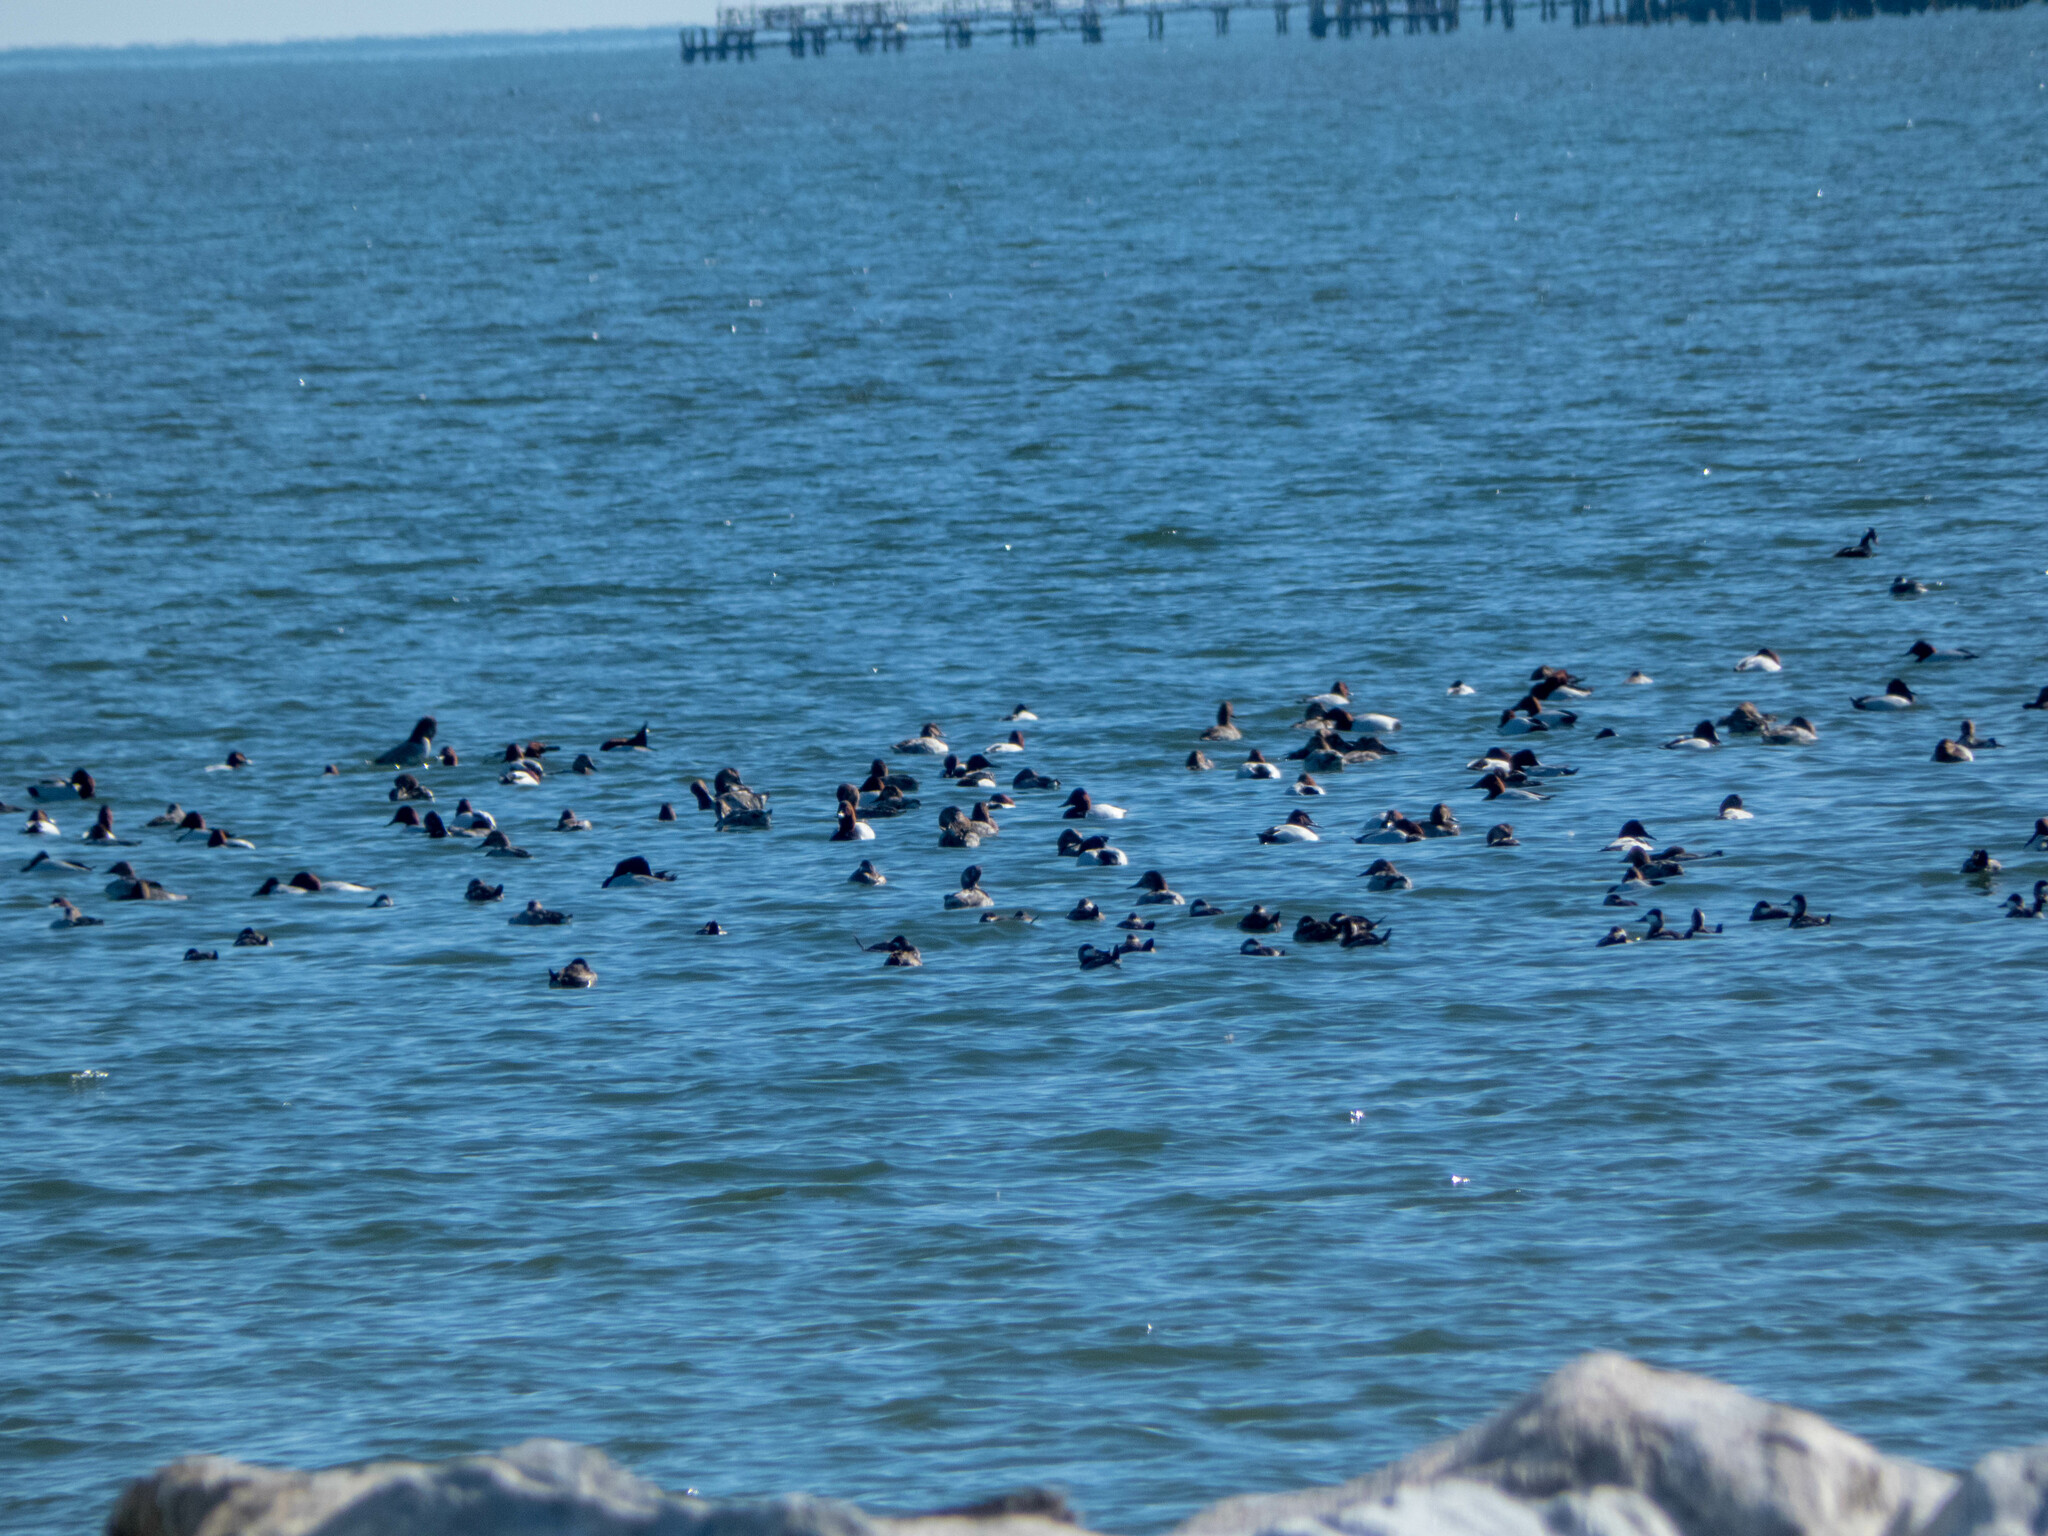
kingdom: Animalia
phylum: Chordata
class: Aves
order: Anseriformes
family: Anatidae
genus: Aythya
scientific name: Aythya valisineria
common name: Canvasback
